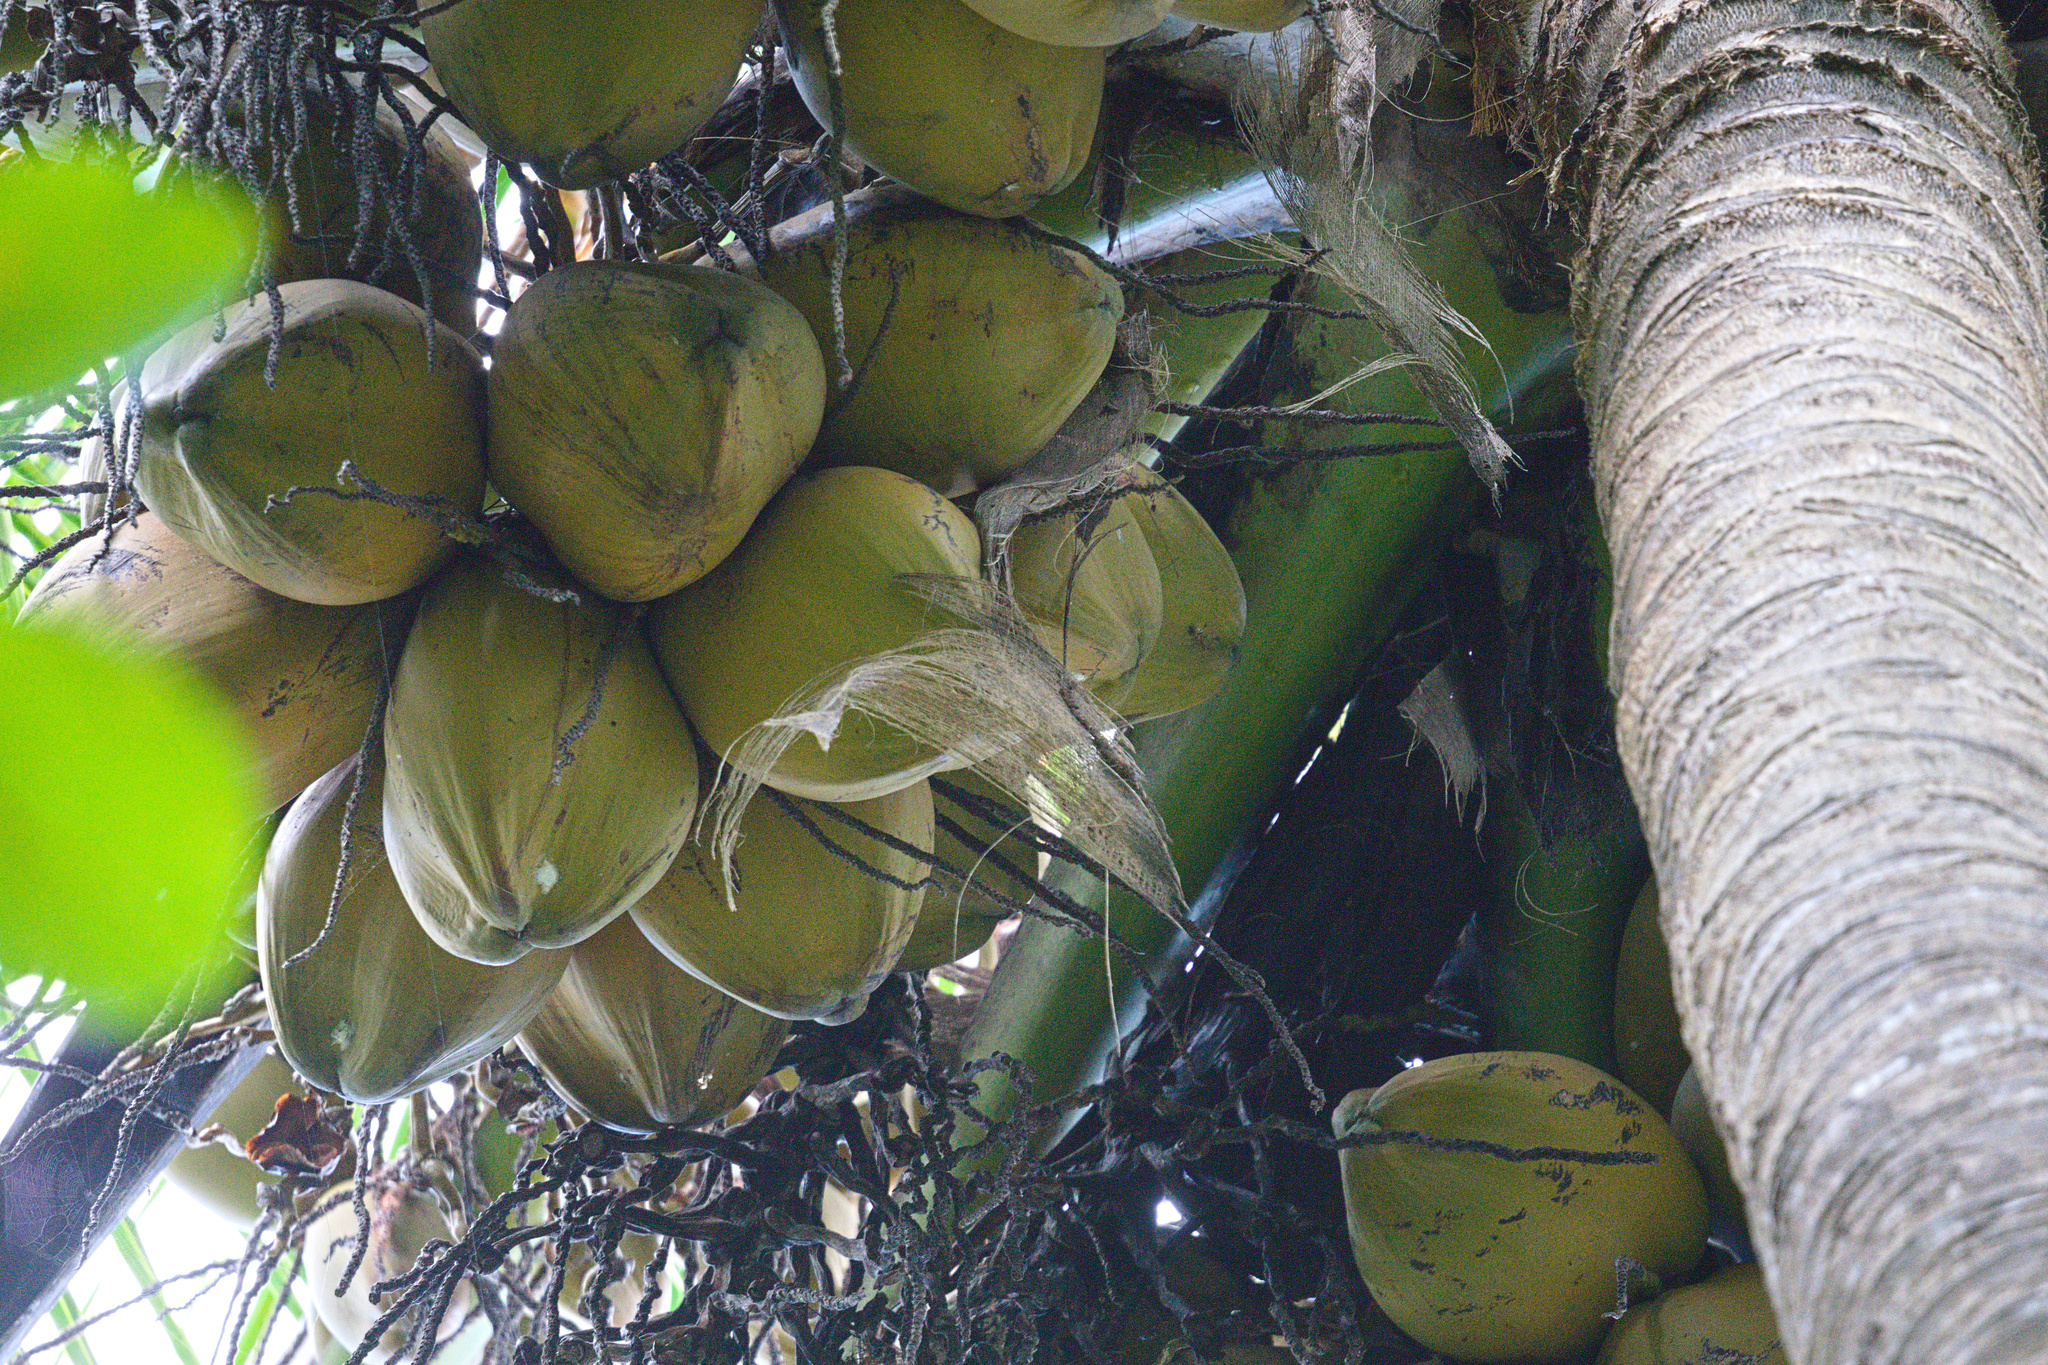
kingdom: Plantae
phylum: Tracheophyta
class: Liliopsida
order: Arecales
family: Arecaceae
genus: Cocos
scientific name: Cocos nucifera
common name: Coconut palm
